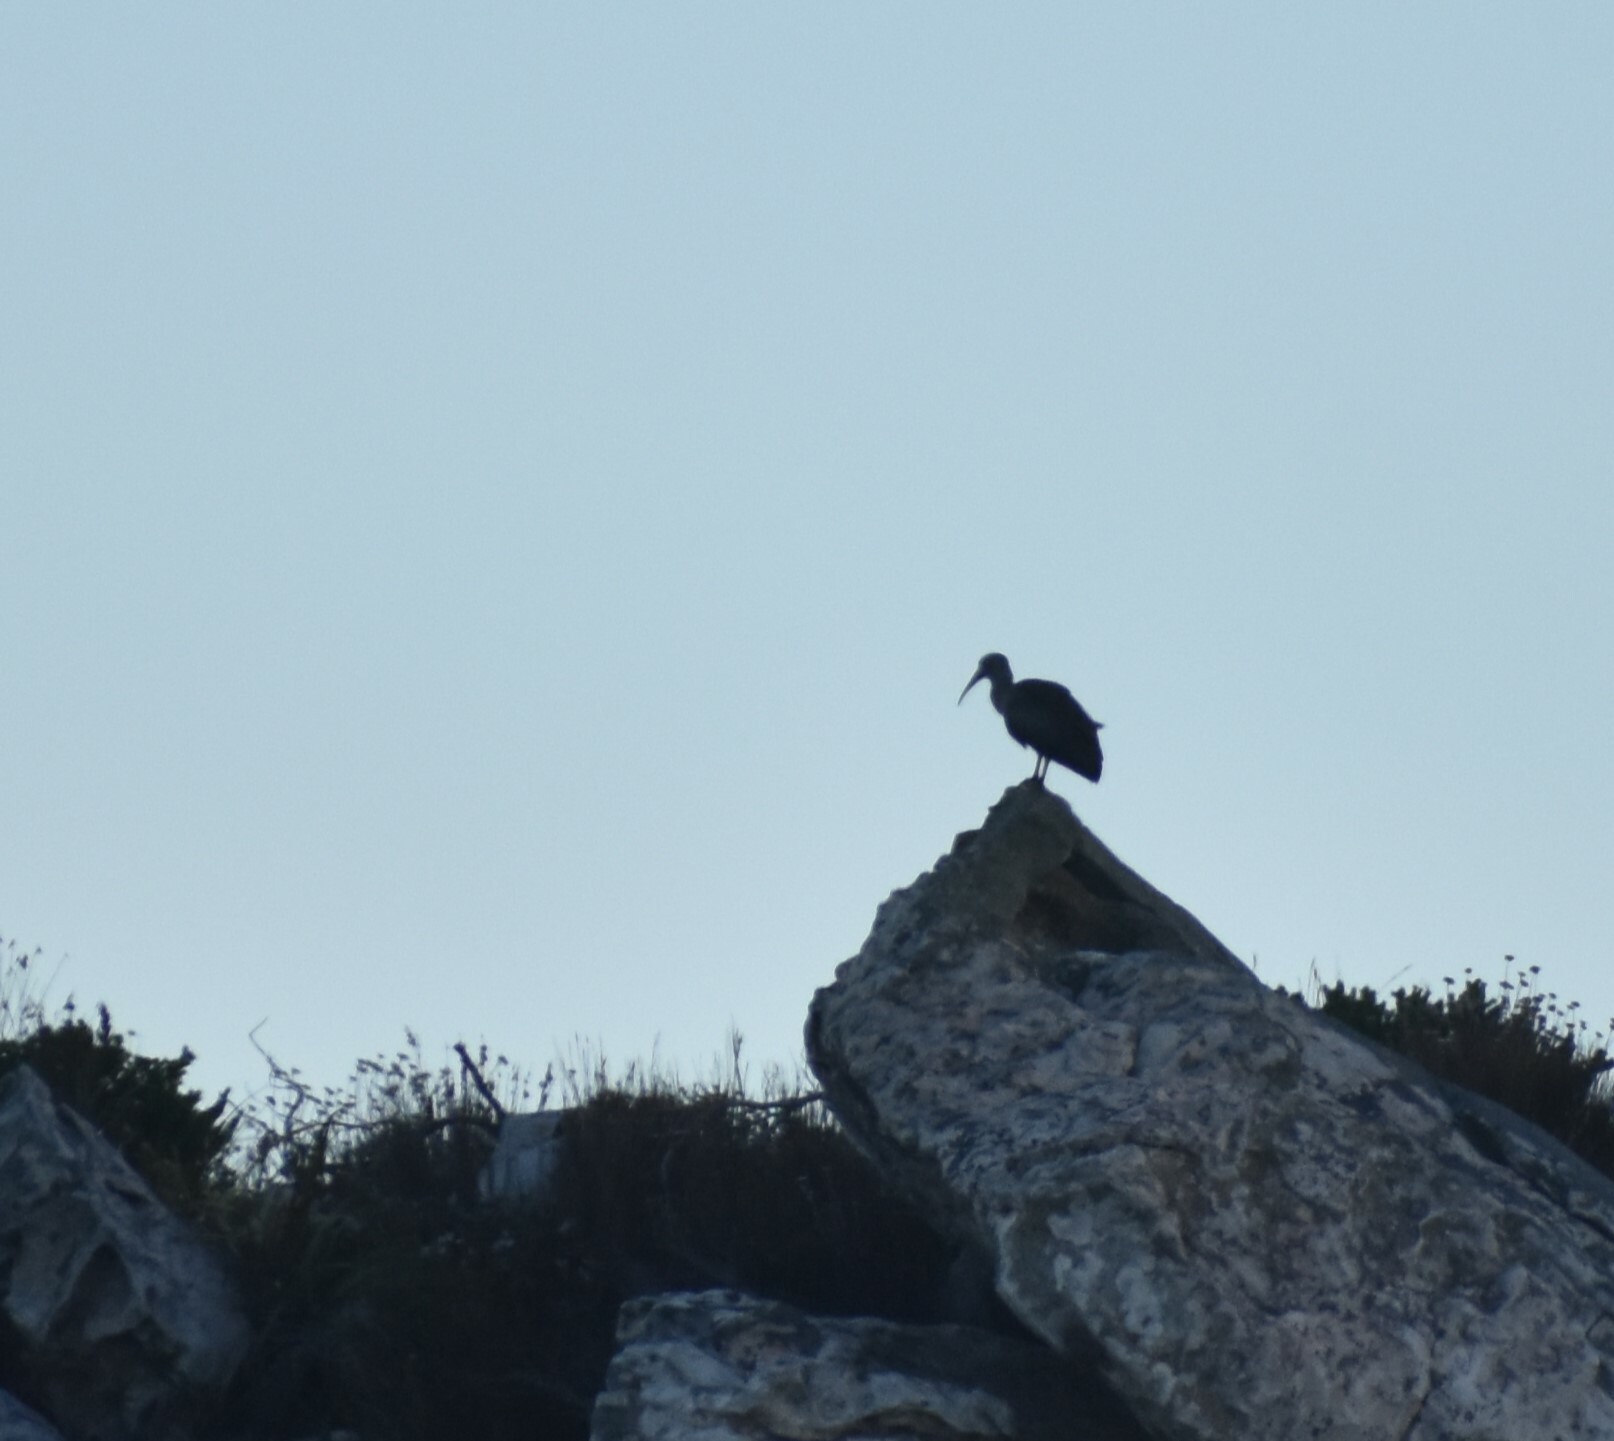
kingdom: Animalia
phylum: Chordata
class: Aves
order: Pelecaniformes
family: Threskiornithidae
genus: Bostrychia
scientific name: Bostrychia hagedash
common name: Hadada ibis
